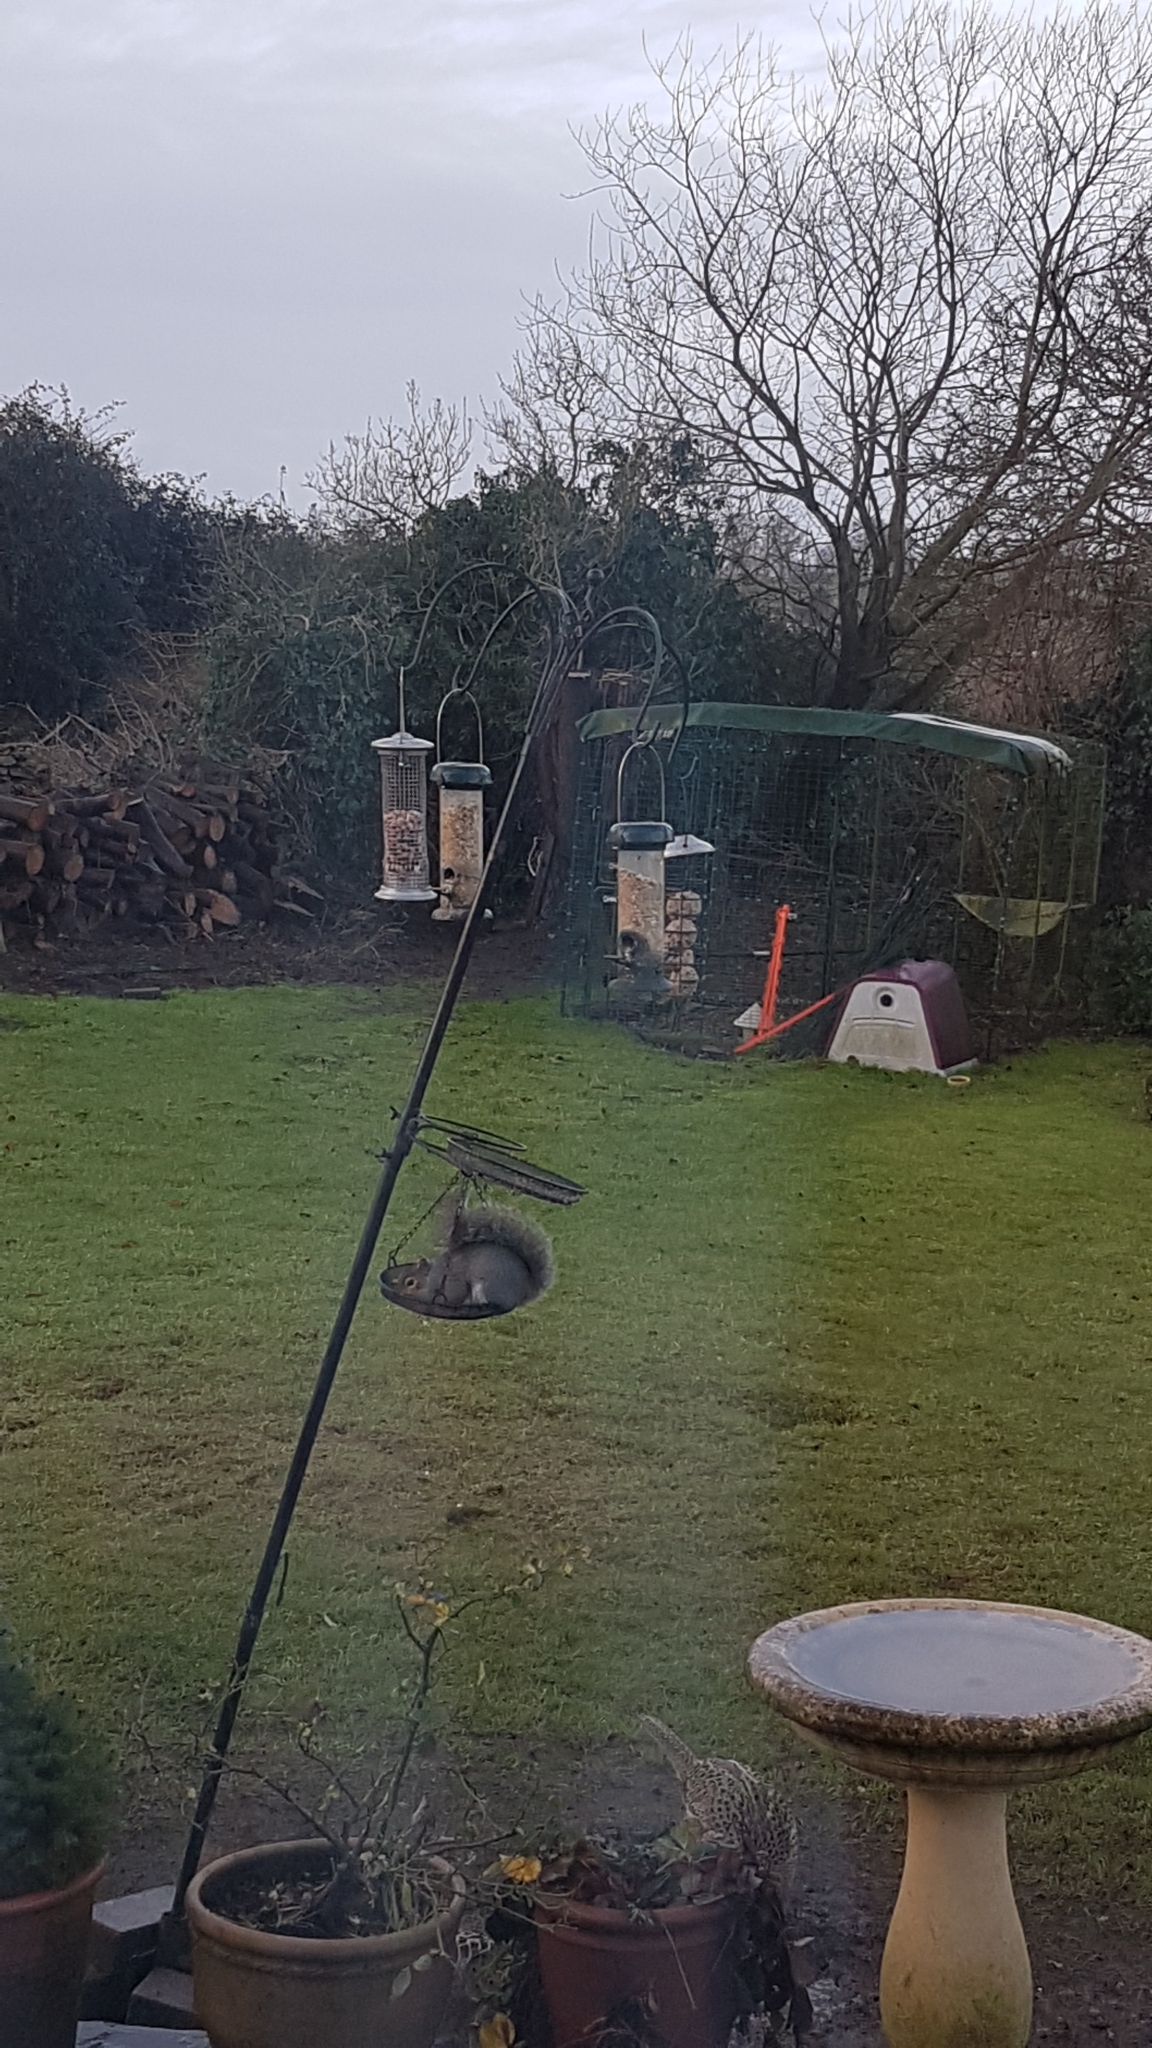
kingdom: Animalia
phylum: Chordata
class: Aves
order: Passeriformes
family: Fringillidae
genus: Fringilla
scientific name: Fringilla coelebs
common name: Common chaffinch
